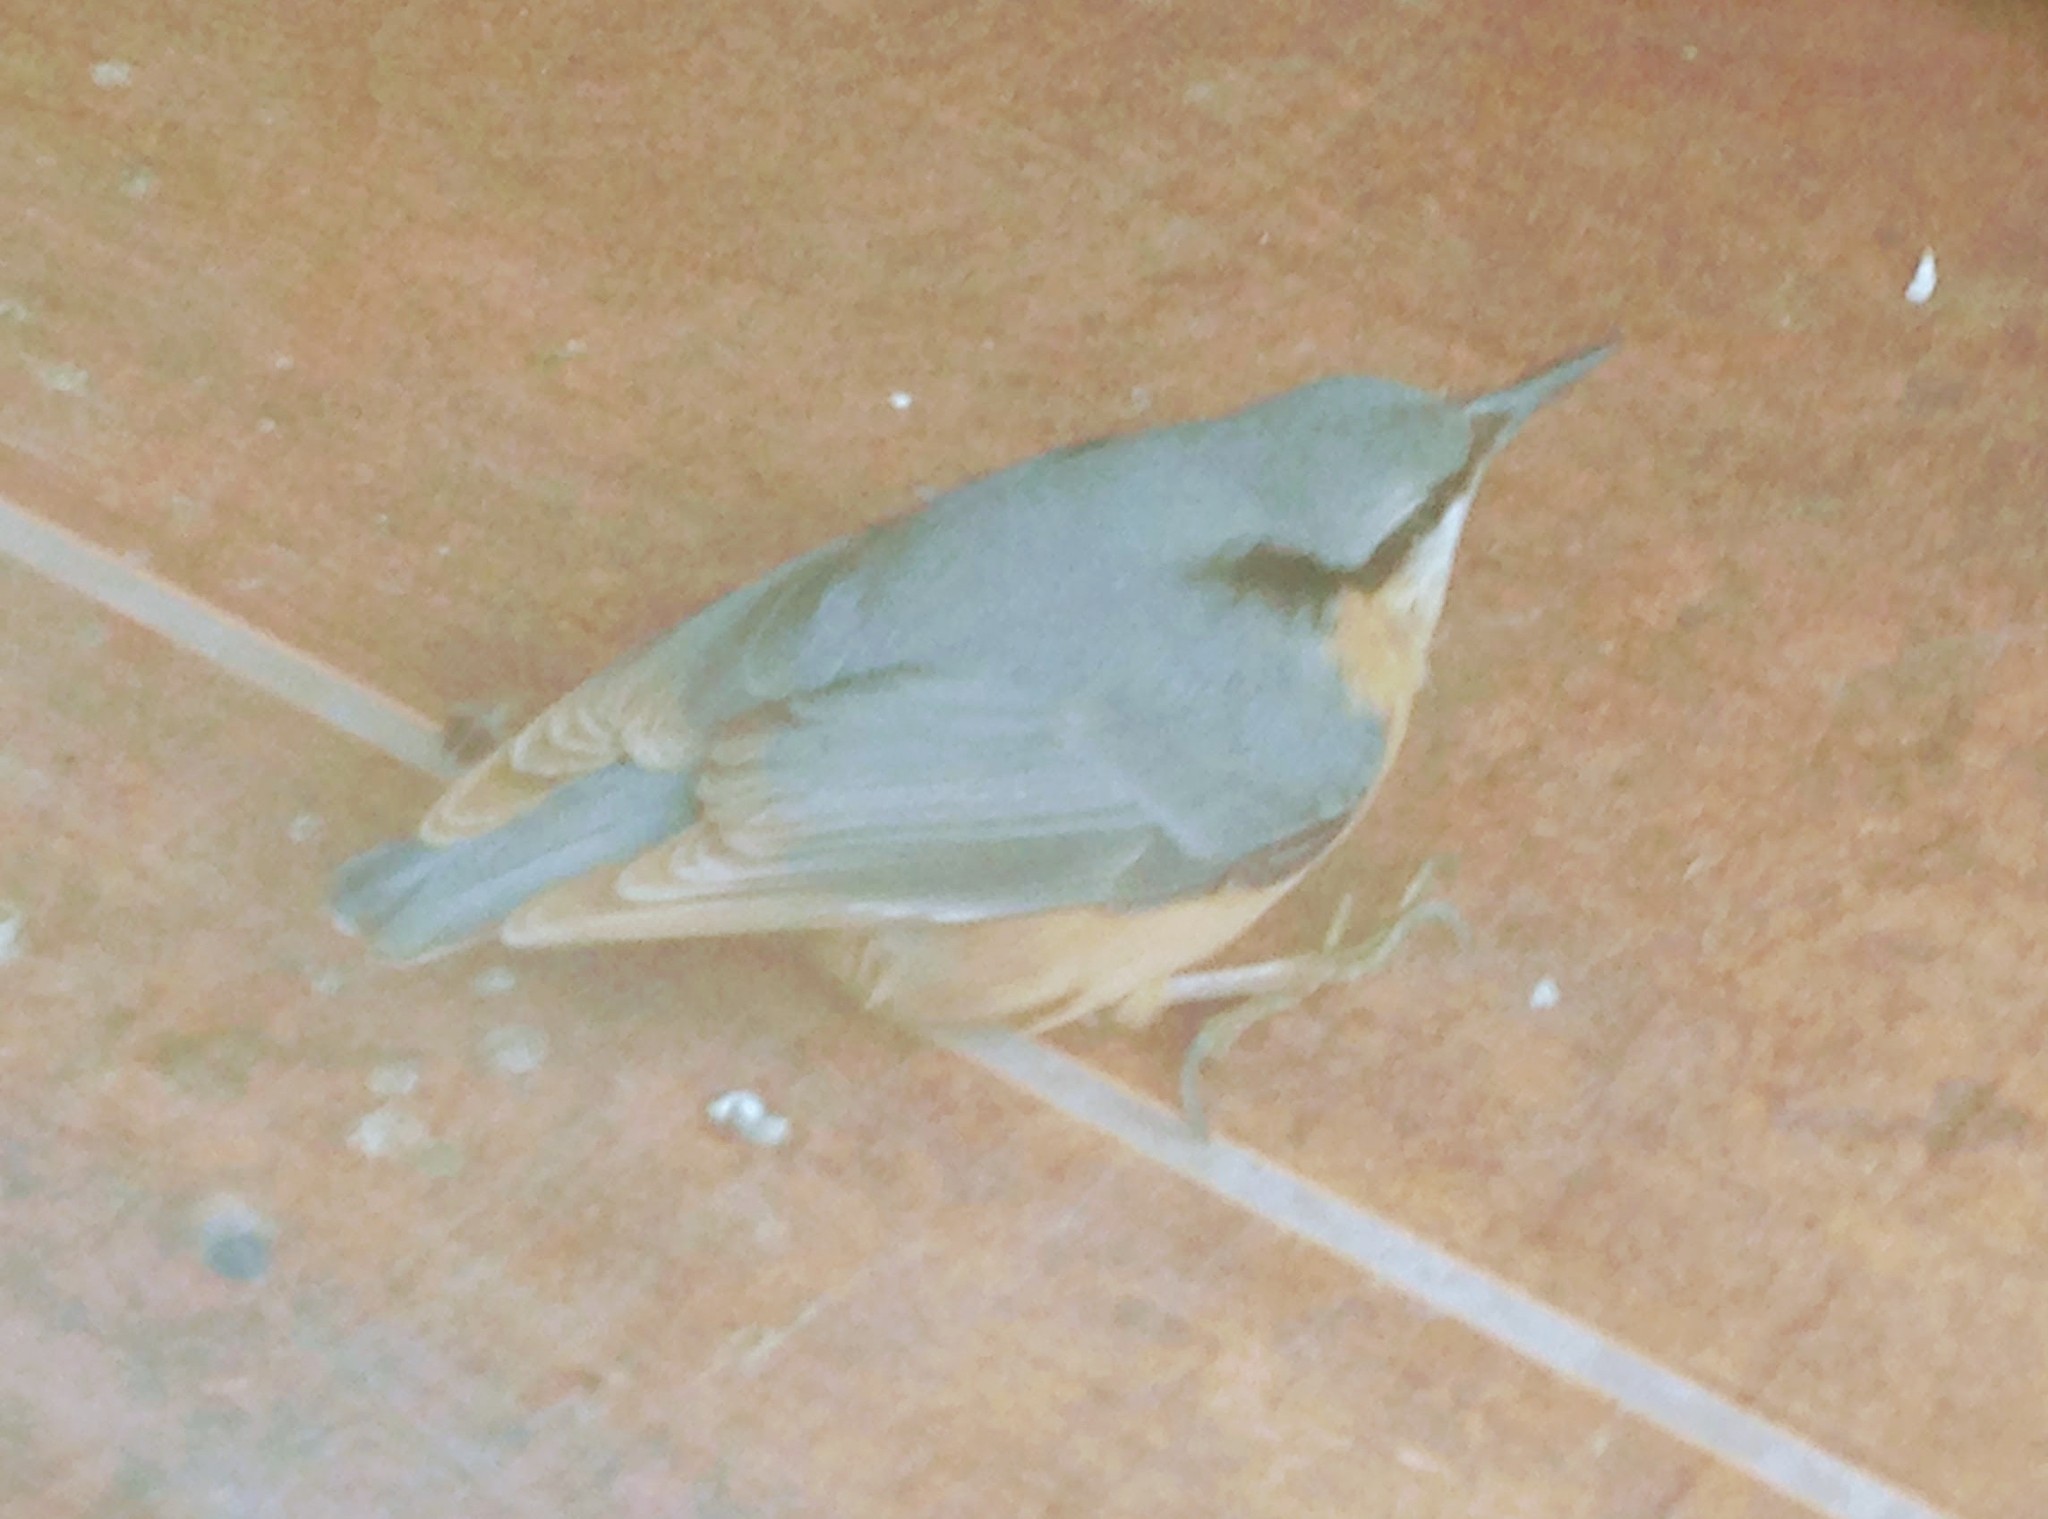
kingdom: Animalia
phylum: Chordata
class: Aves
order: Passeriformes
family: Sittidae
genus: Sitta
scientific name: Sitta europaea
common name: Eurasian nuthatch
